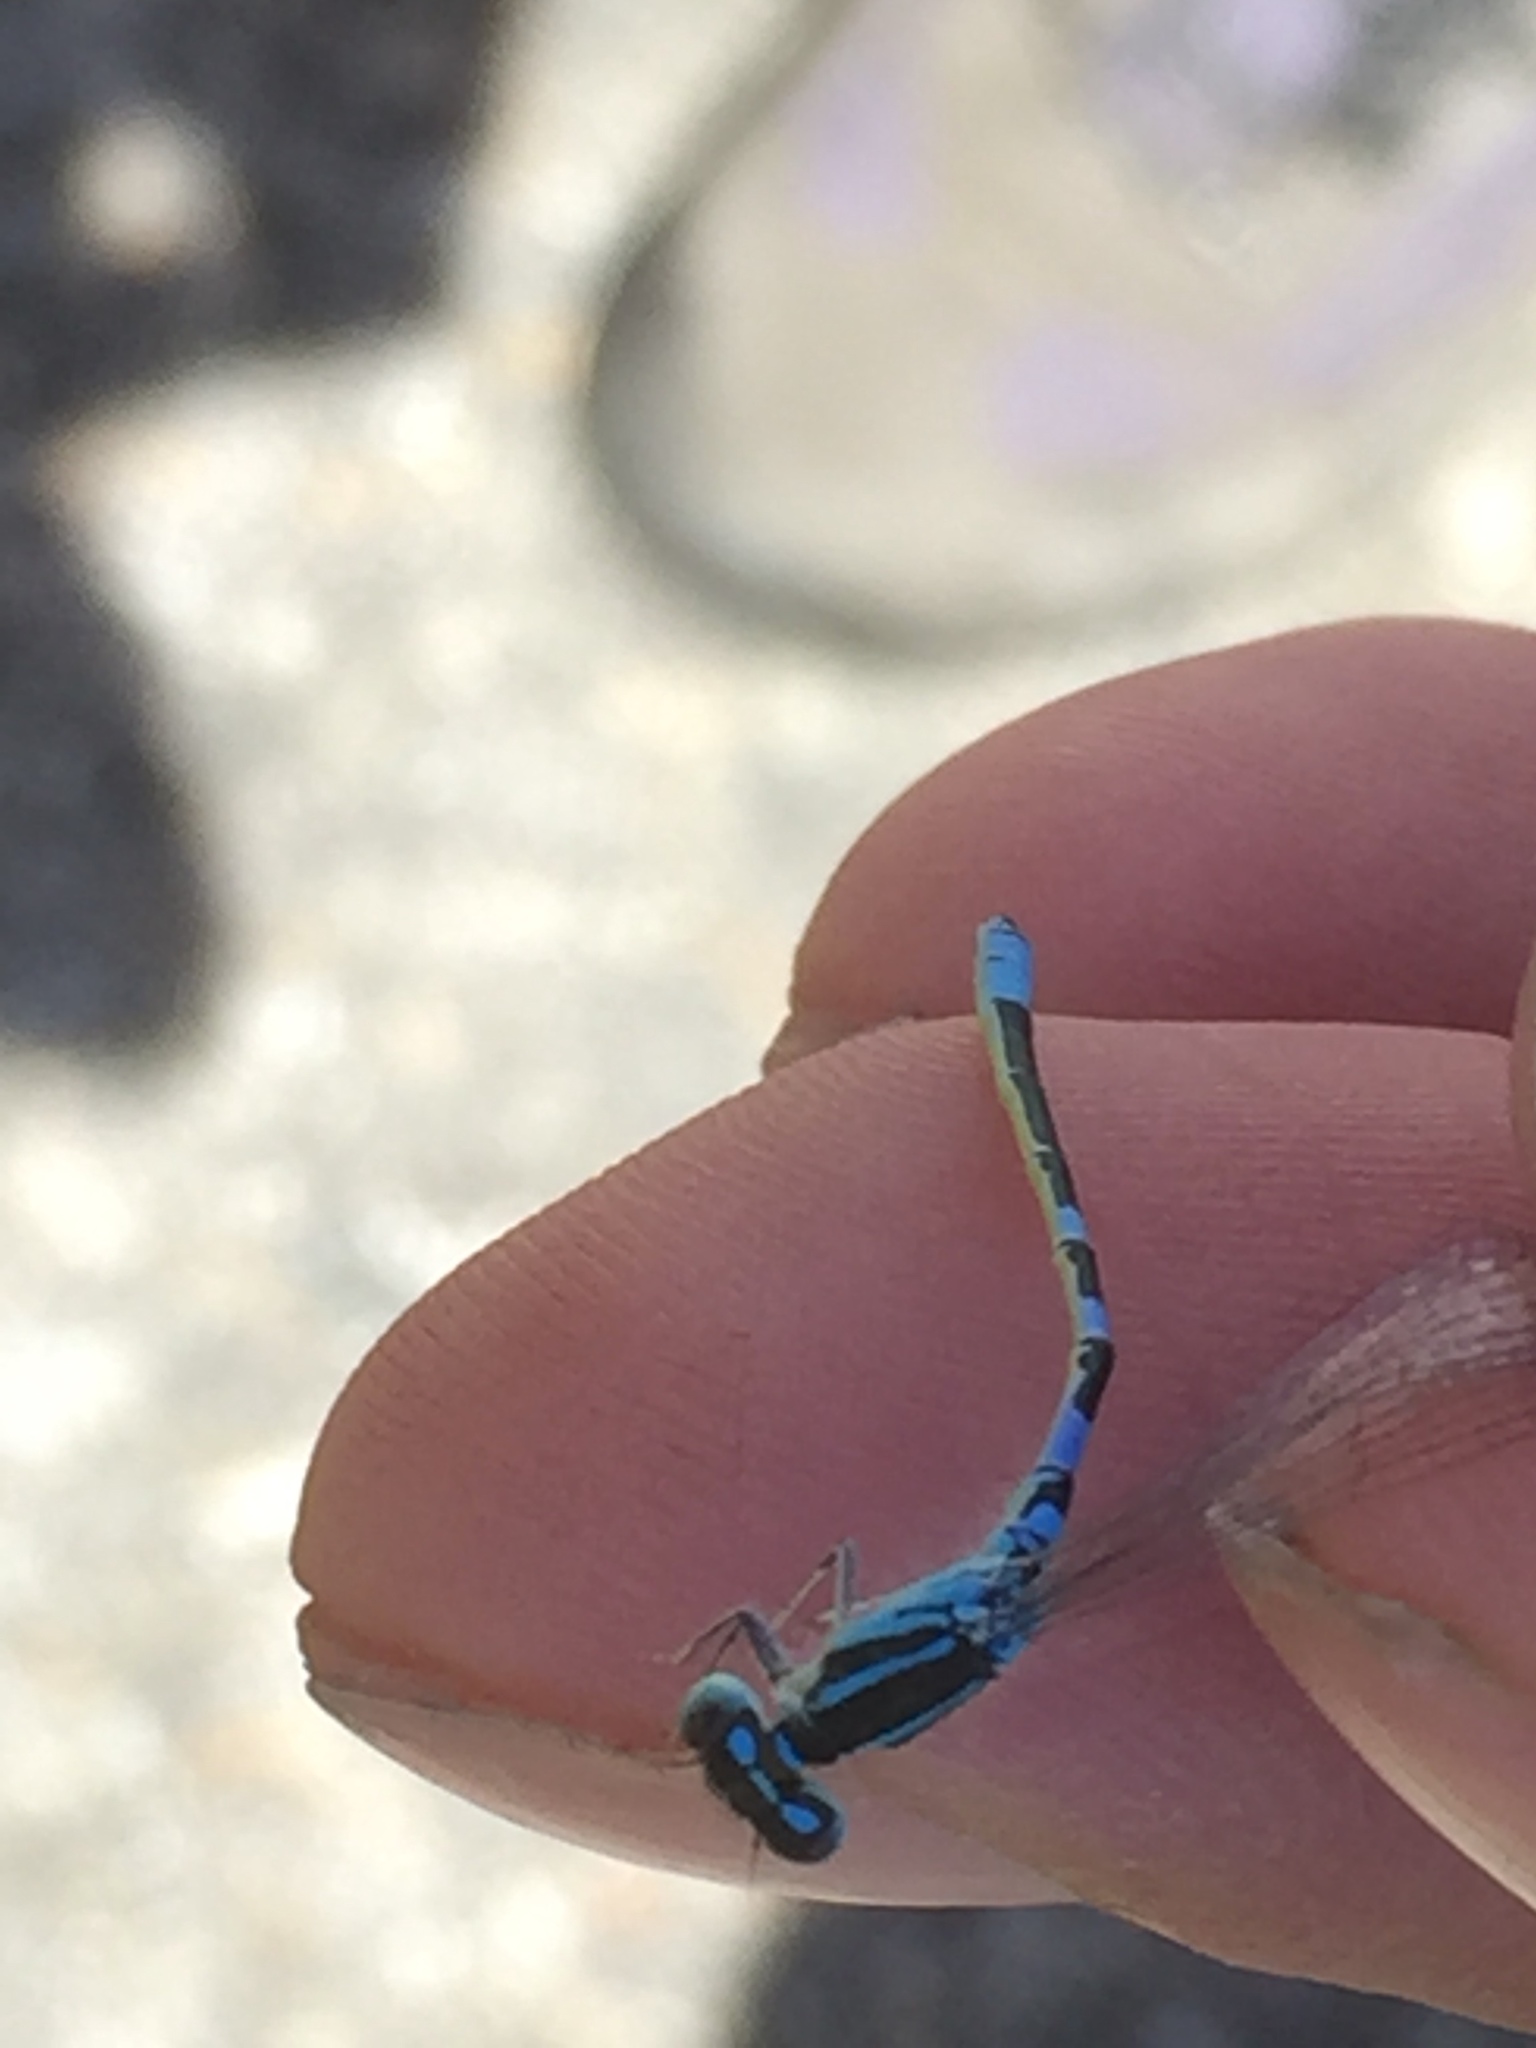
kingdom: Animalia
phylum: Arthropoda
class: Insecta
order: Odonata
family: Coenagrionidae
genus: Coenagrion
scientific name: Coenagrion scitulum
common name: Dainty bluet
